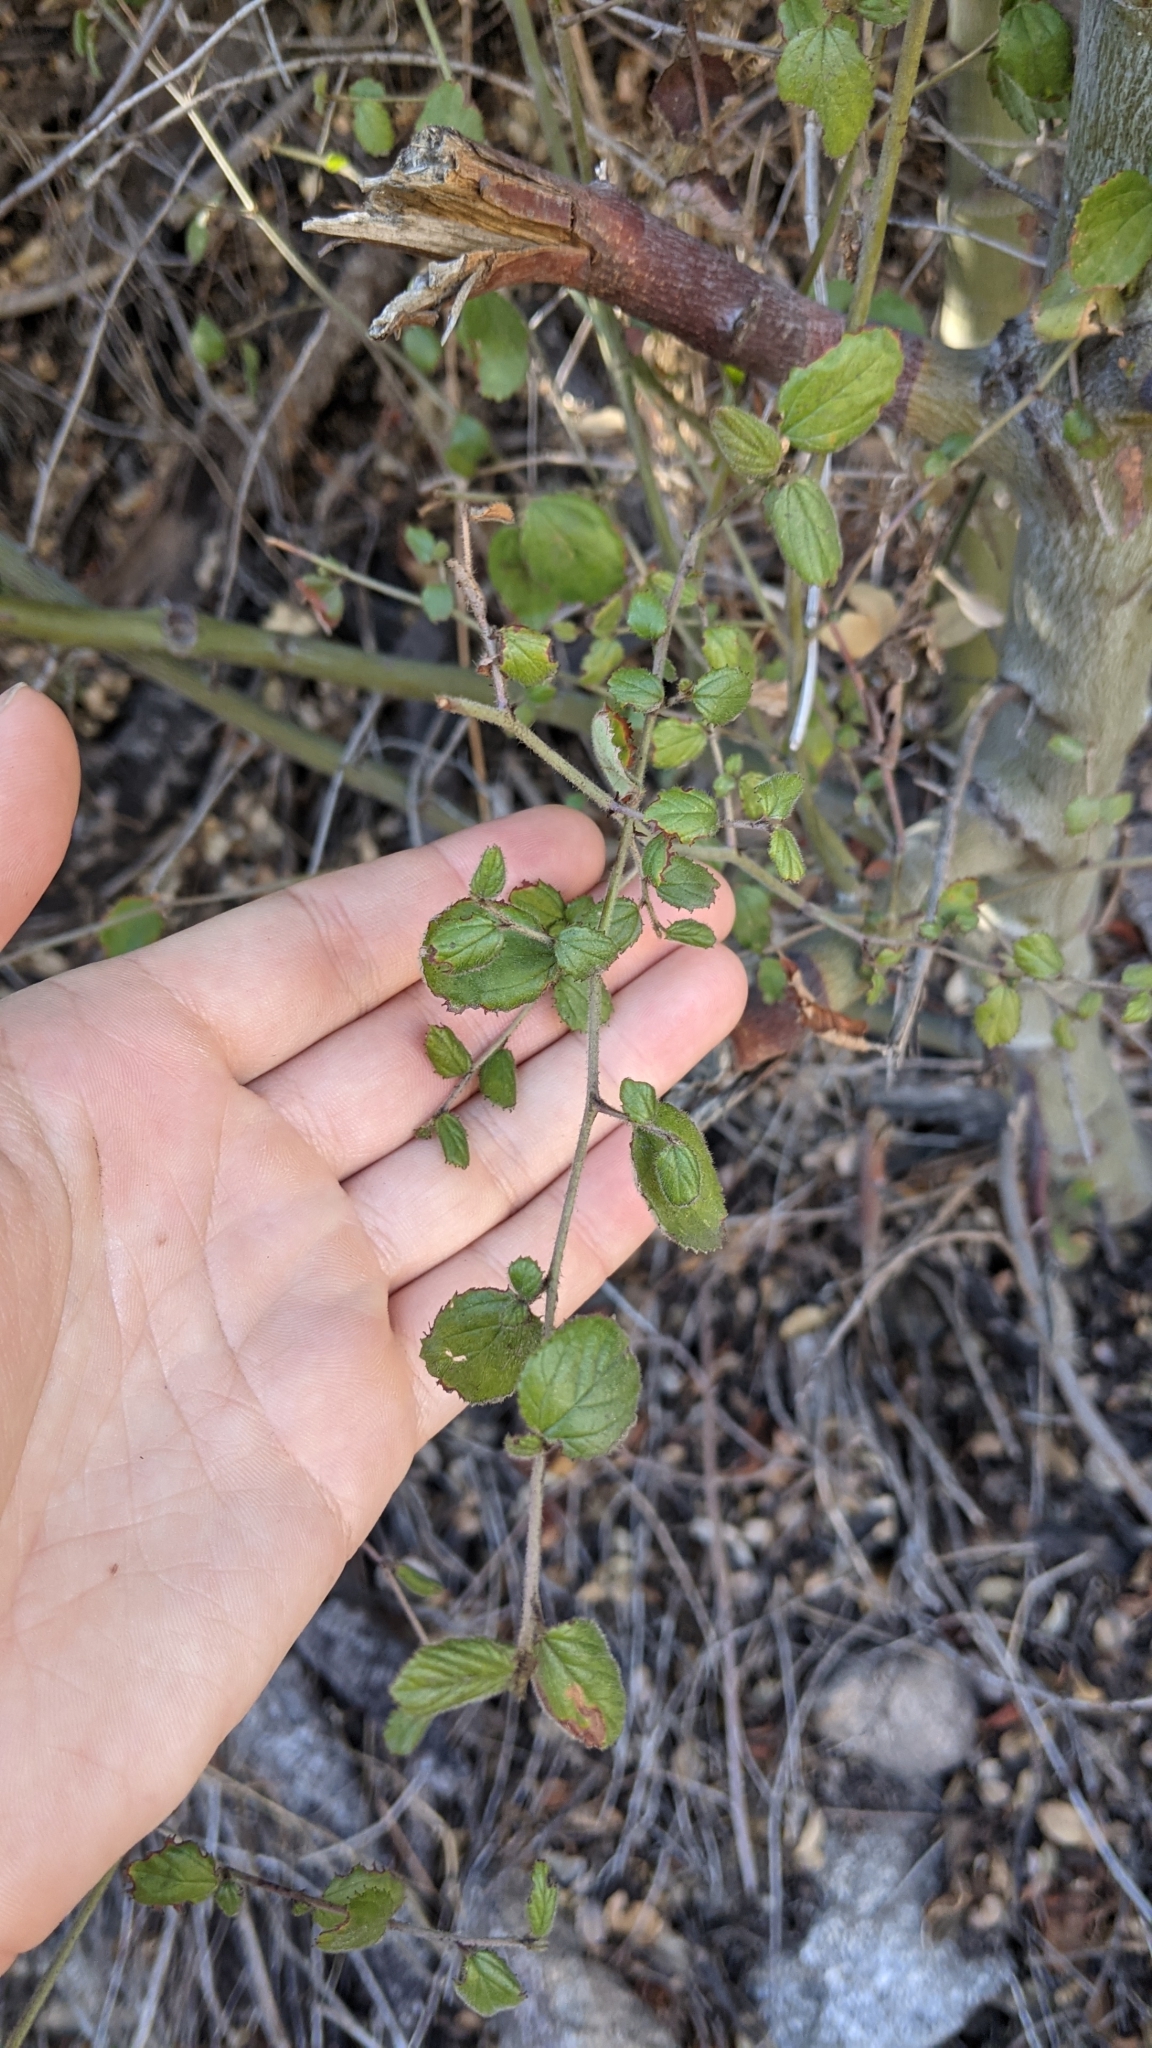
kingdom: Plantae
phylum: Tracheophyta
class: Magnoliopsida
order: Rosales
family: Rhamnaceae
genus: Ceanothus
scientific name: Ceanothus oliganthus
